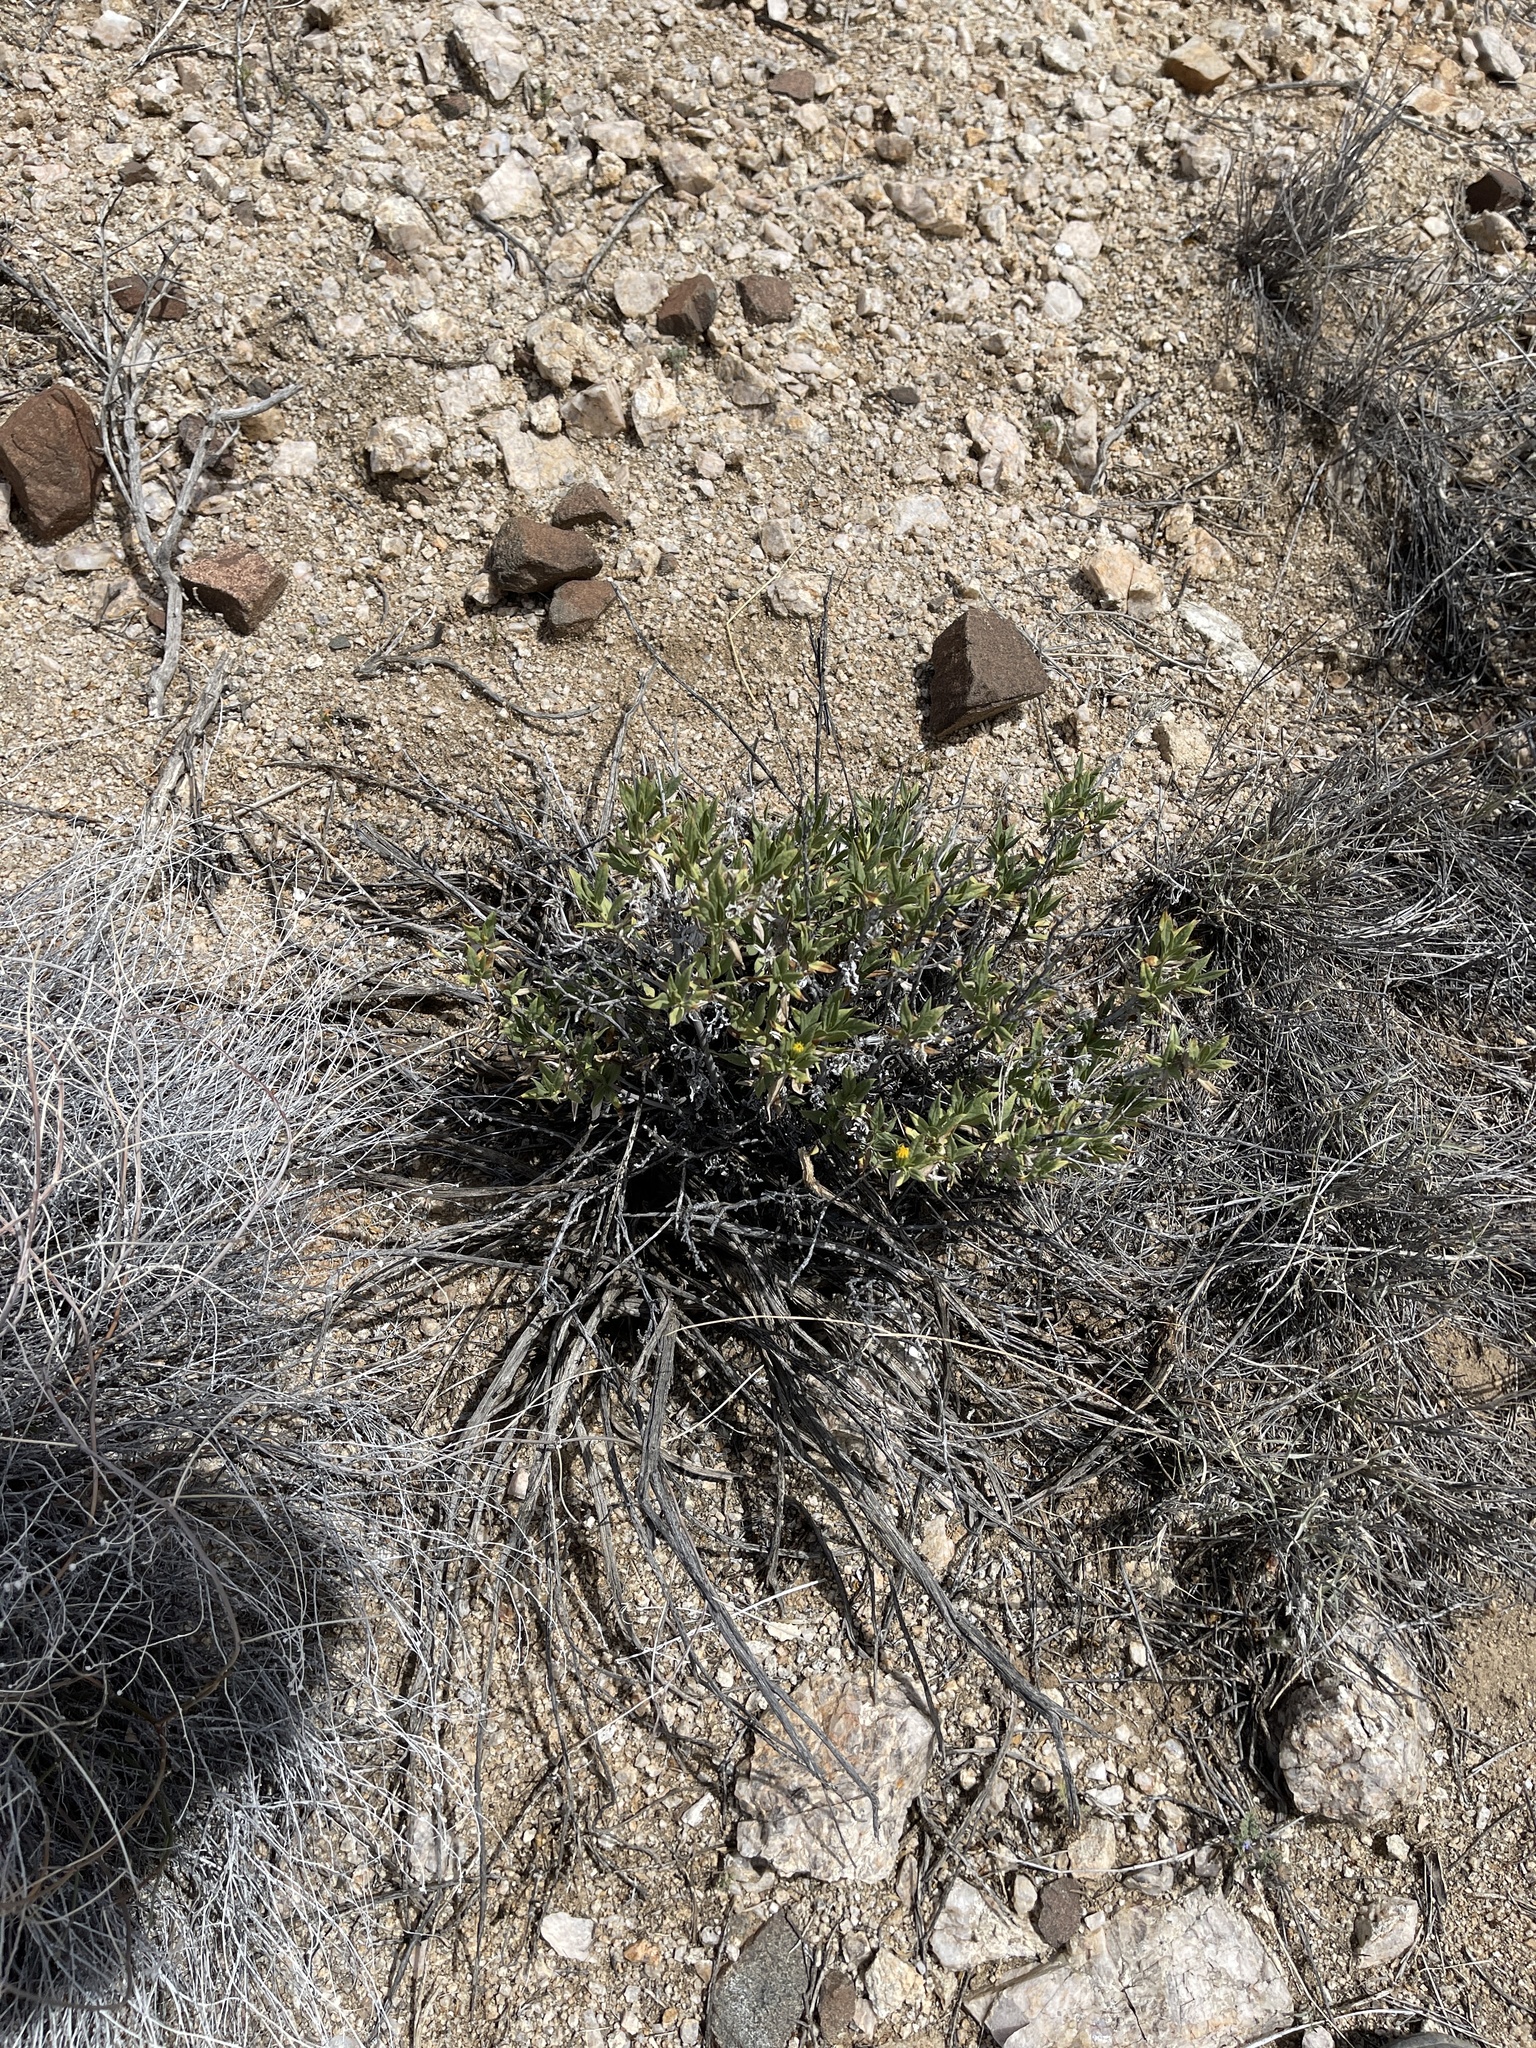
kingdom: Plantae
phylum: Tracheophyta
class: Magnoliopsida
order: Asterales
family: Asteraceae
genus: Trixis
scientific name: Trixis californica
